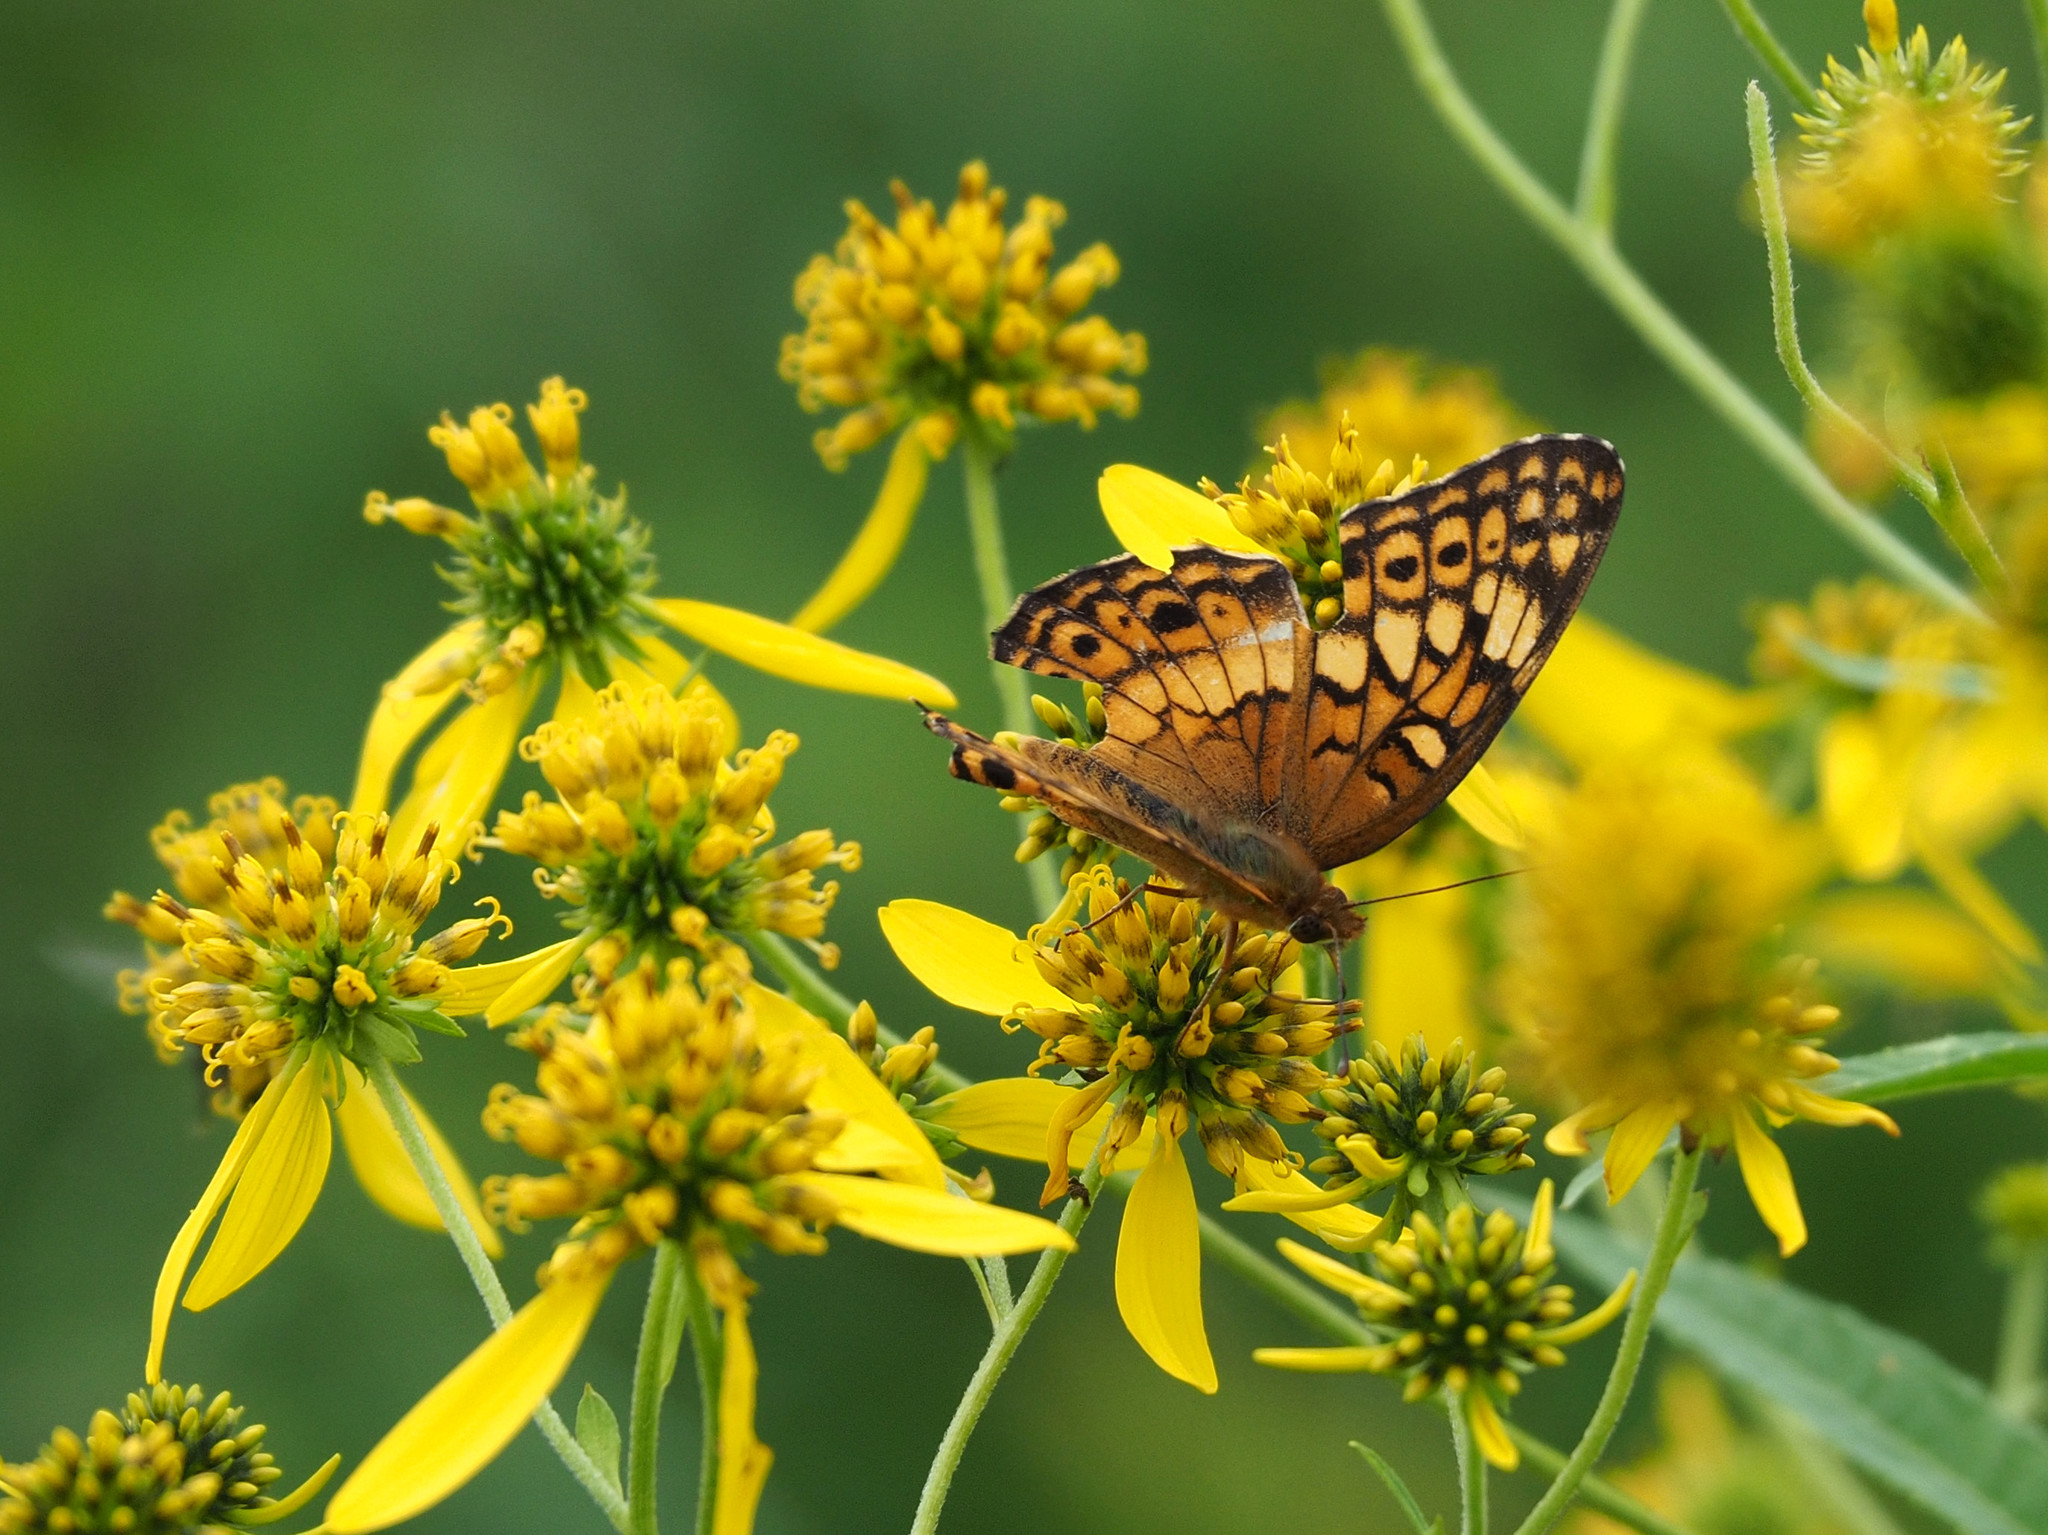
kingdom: Animalia
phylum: Arthropoda
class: Insecta
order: Lepidoptera
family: Nymphalidae
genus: Euptoieta
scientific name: Euptoieta claudia
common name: Variegated fritillary
